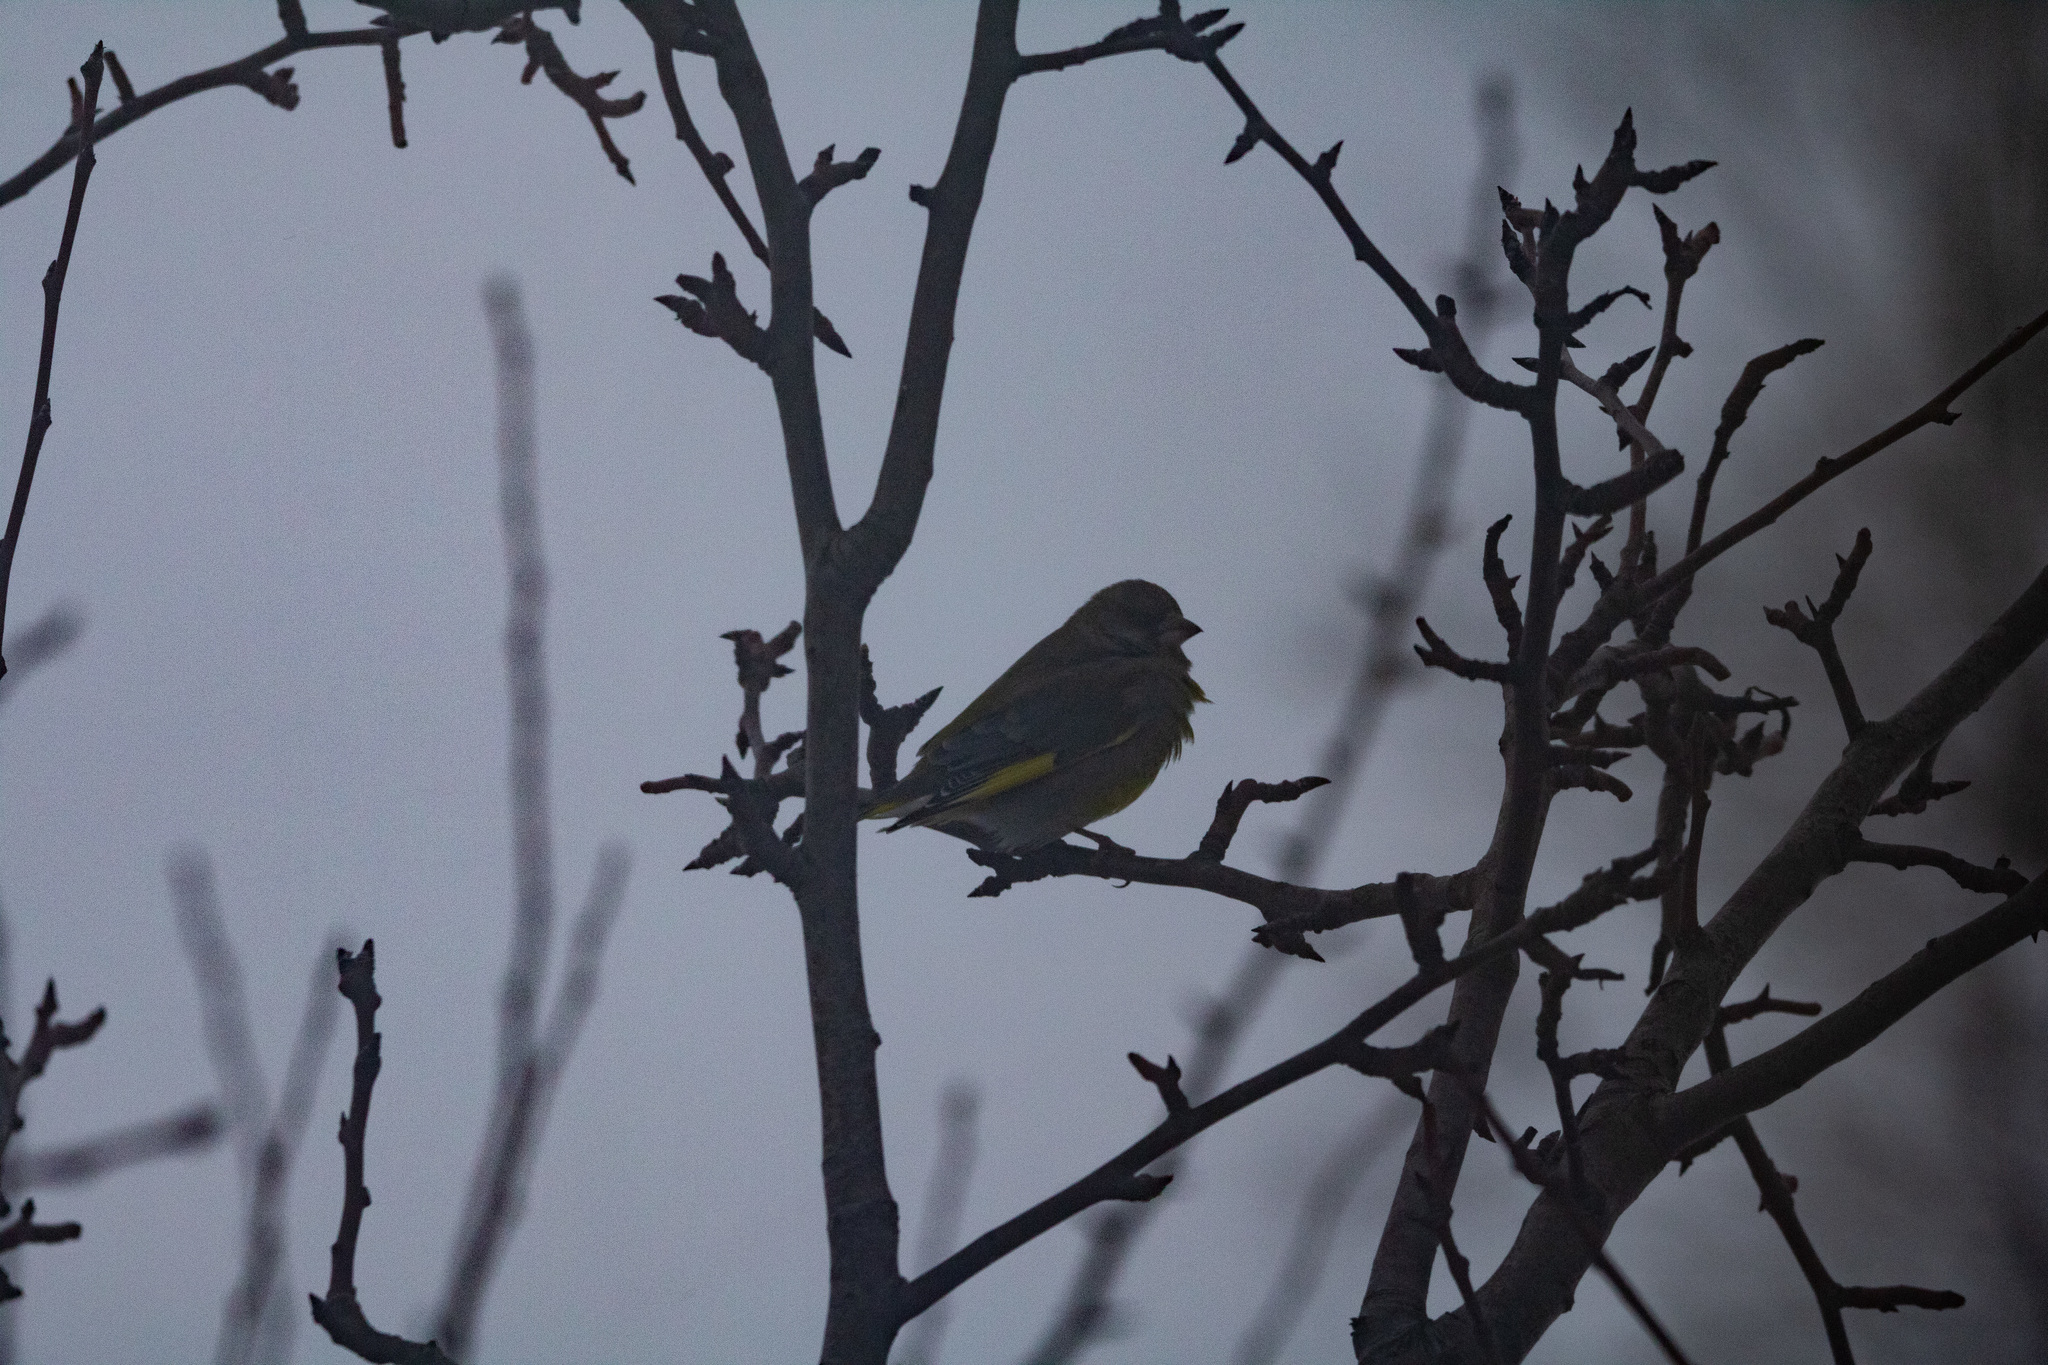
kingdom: Plantae
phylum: Tracheophyta
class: Liliopsida
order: Poales
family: Poaceae
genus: Chloris
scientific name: Chloris chloris
